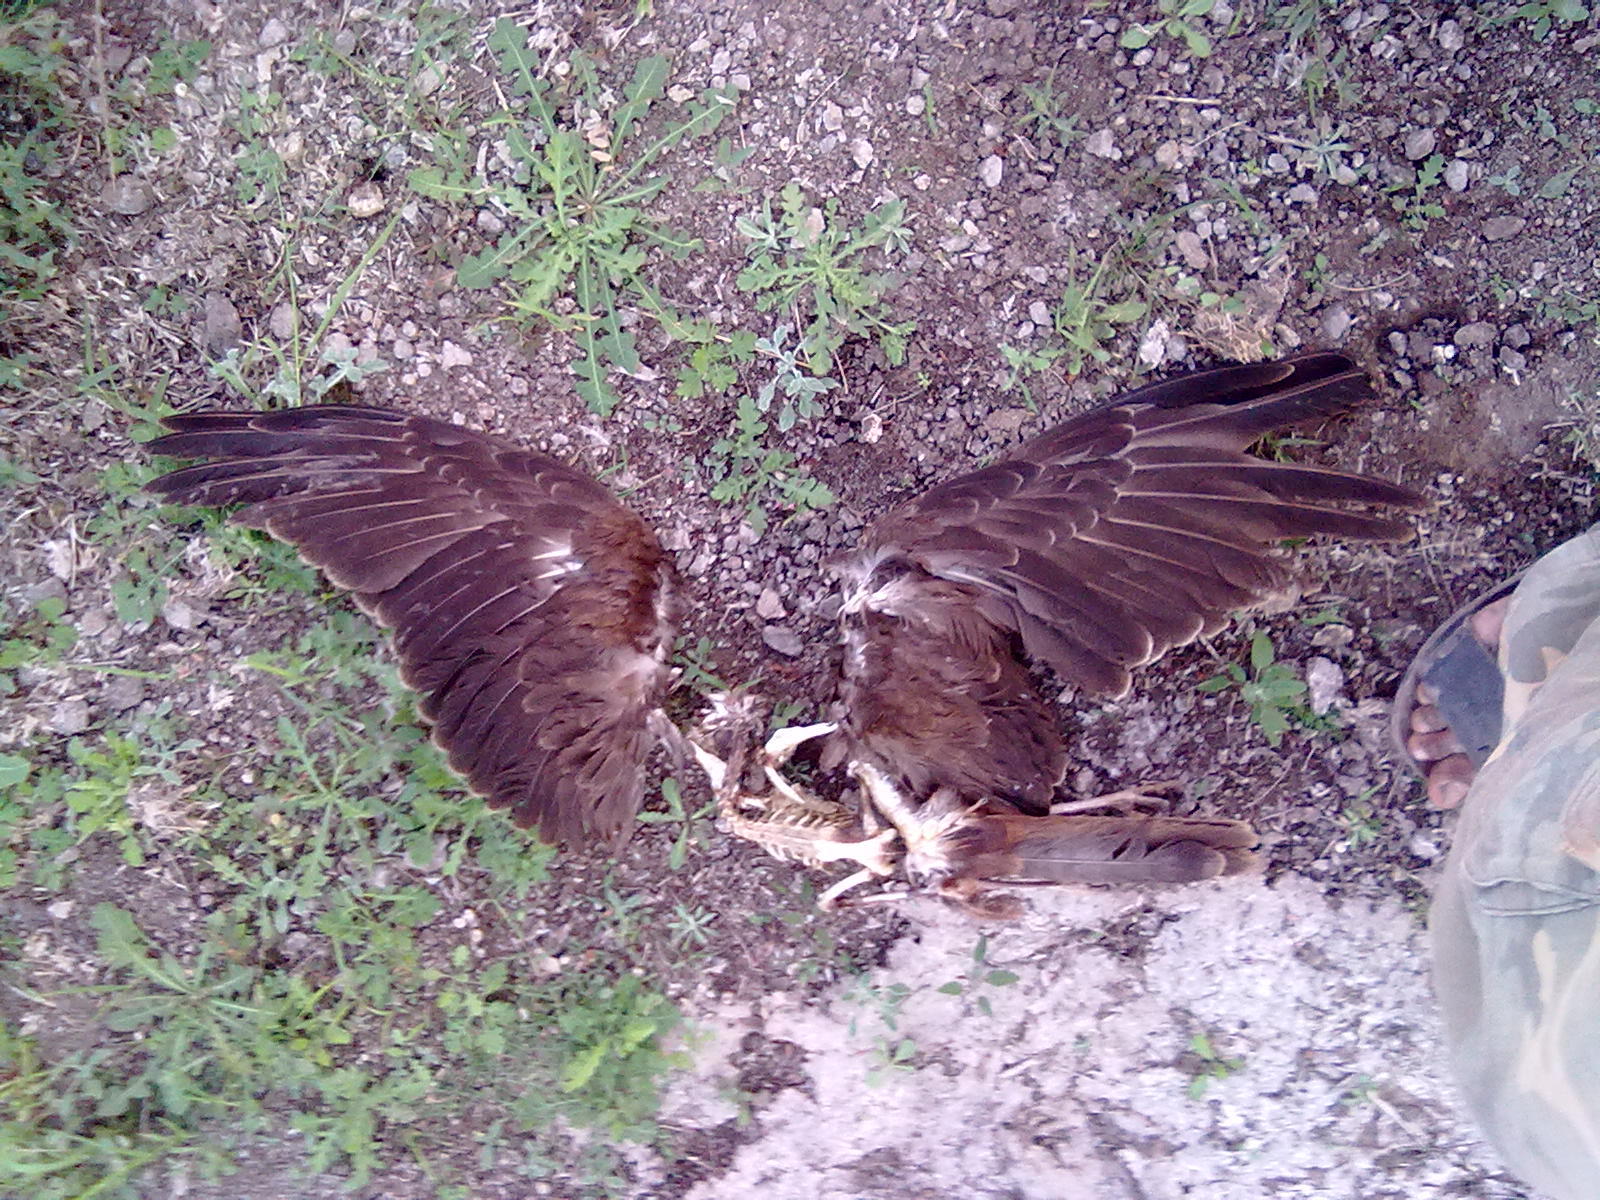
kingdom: Animalia
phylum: Chordata
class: Aves
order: Accipitriformes
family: Accipitridae
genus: Circus
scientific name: Circus aeruginosus
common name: Western marsh harrier
